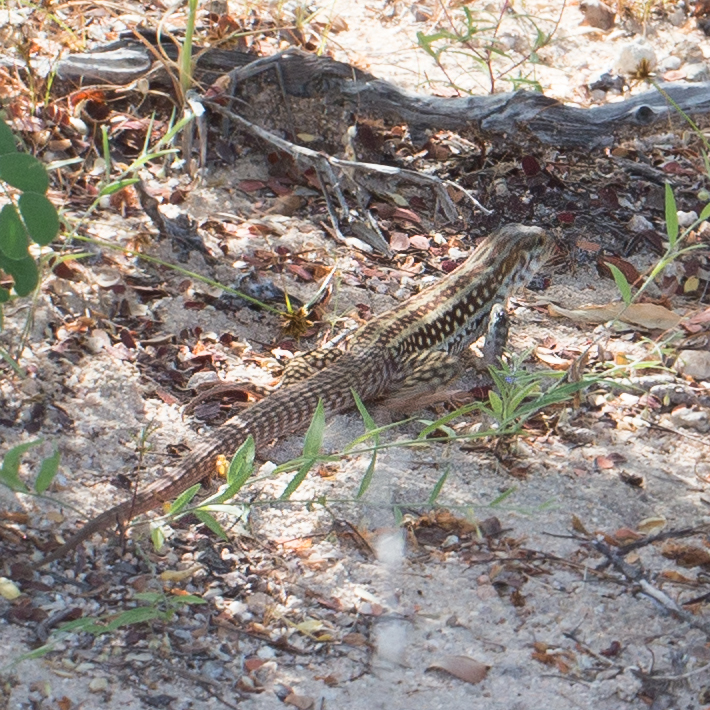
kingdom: Animalia
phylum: Chordata
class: Squamata
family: Teiidae
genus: Aspidoscelis
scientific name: Aspidoscelis maximus
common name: Cape region whiptail
